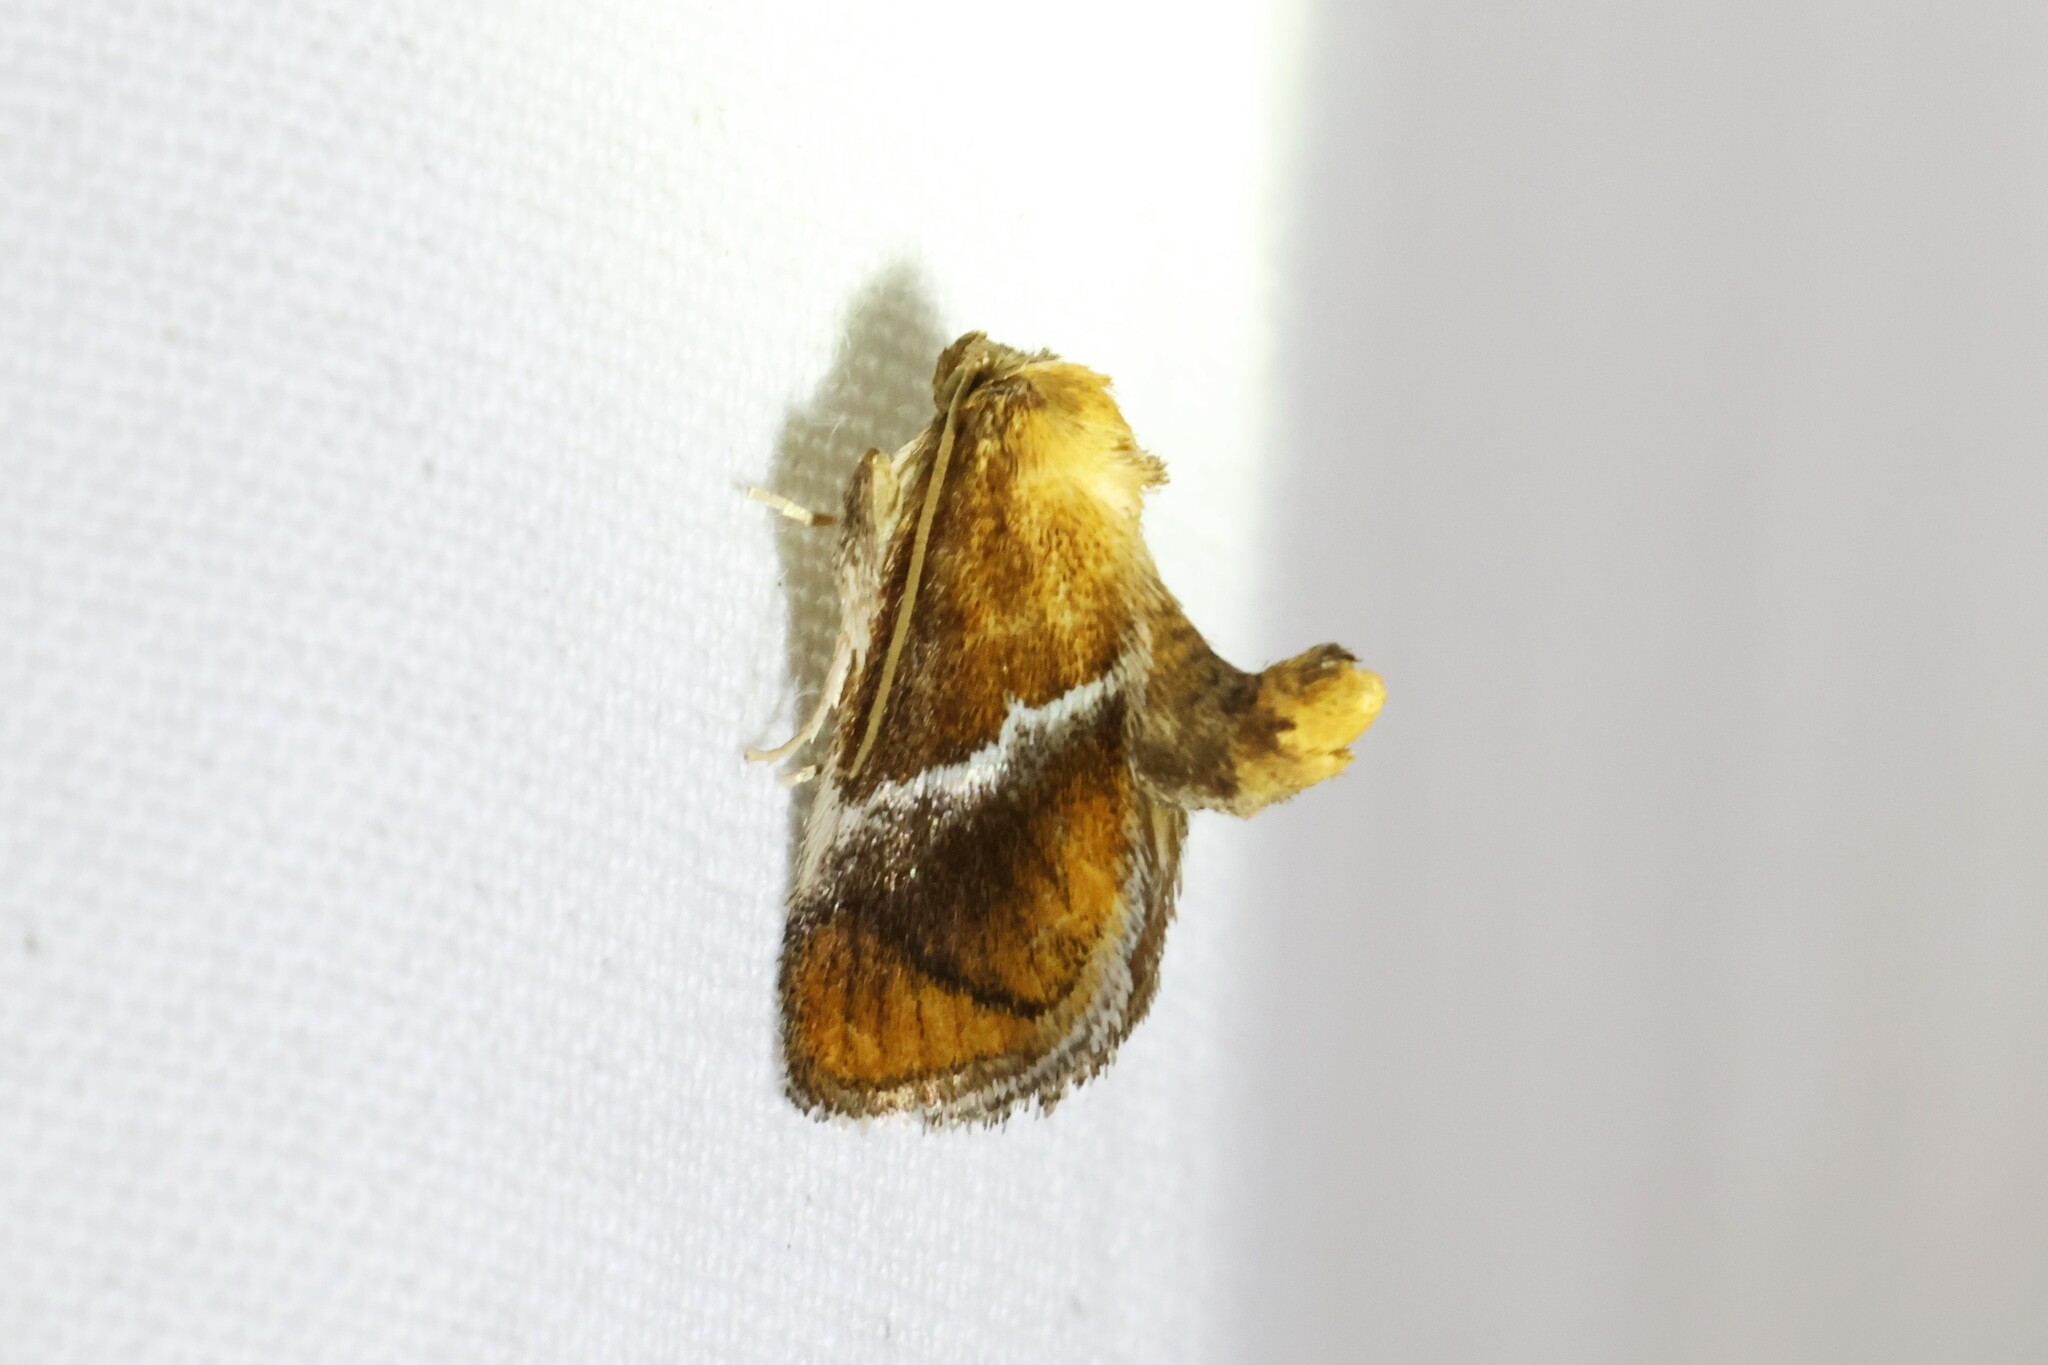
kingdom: Animalia
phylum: Arthropoda
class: Insecta
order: Lepidoptera
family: Limacodidae
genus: Lithacodes
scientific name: Lithacodes fasciola
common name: Yellow-shouldered slug moth
